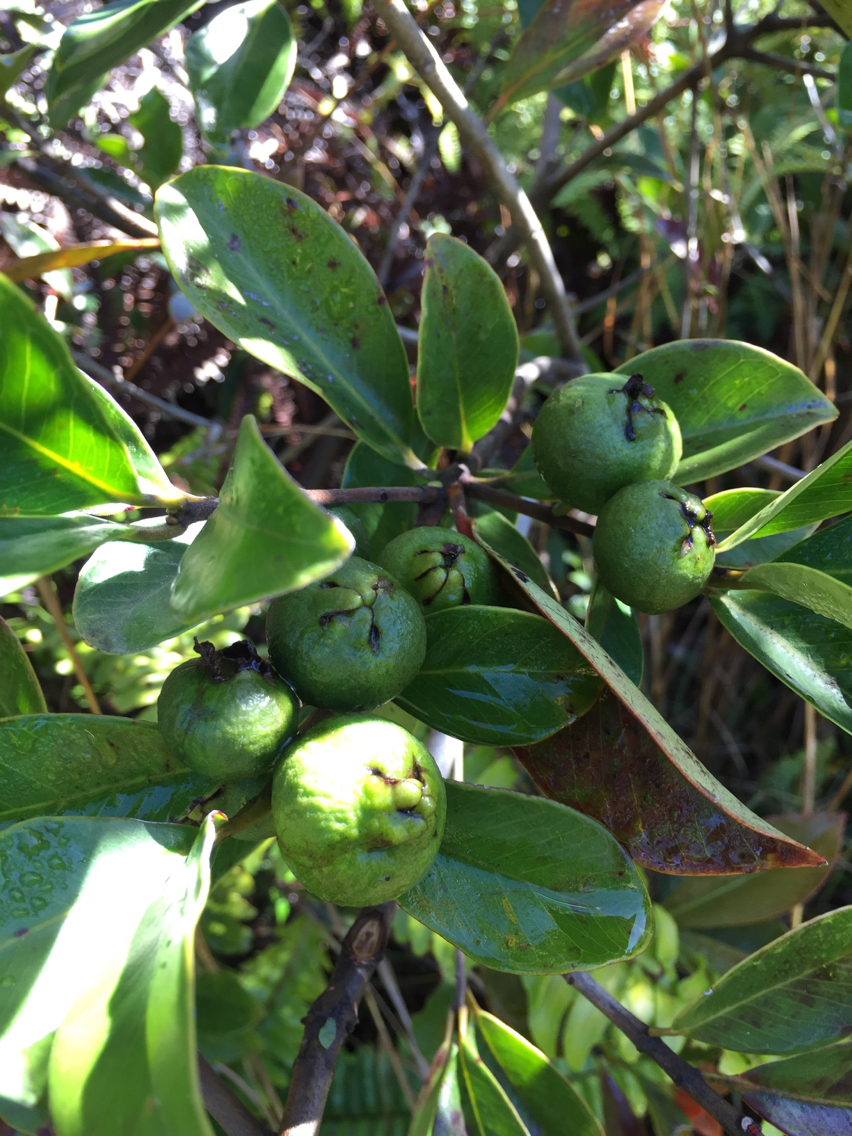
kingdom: Plantae
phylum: Tracheophyta
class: Magnoliopsida
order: Myrtales
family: Myrtaceae
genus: Psidium
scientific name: Psidium cattleianum
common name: Strawberry guava
